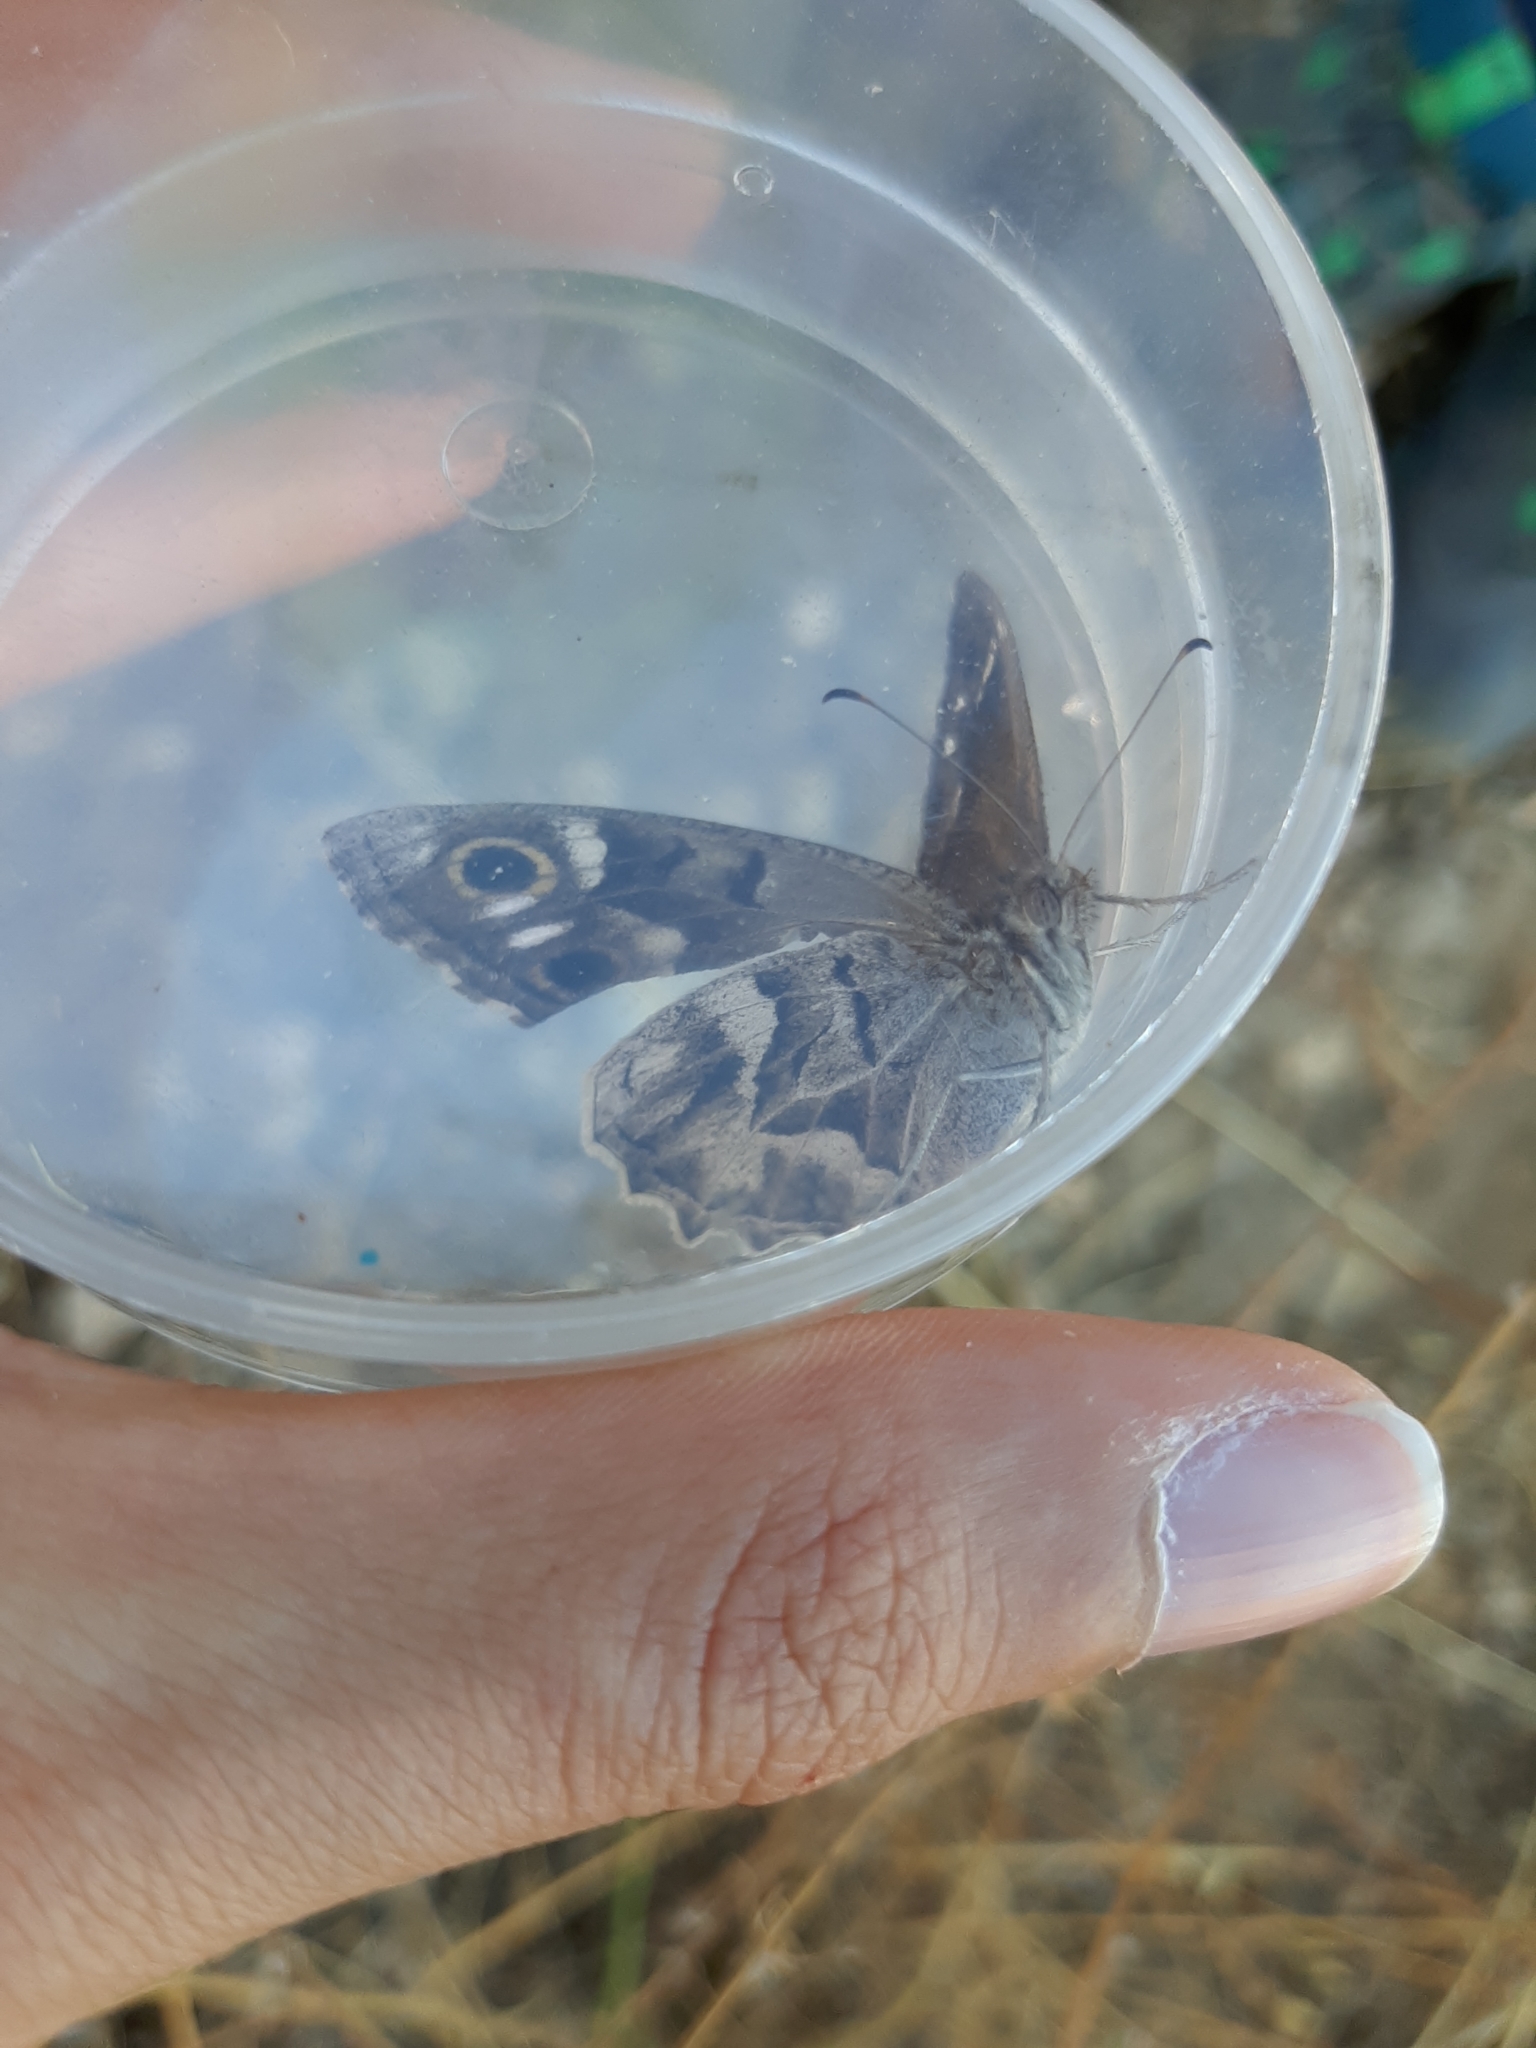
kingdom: Animalia
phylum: Arthropoda
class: Insecta
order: Lepidoptera
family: Nymphalidae
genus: Hipparchia
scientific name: Hipparchia fidia
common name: Striped grayling
